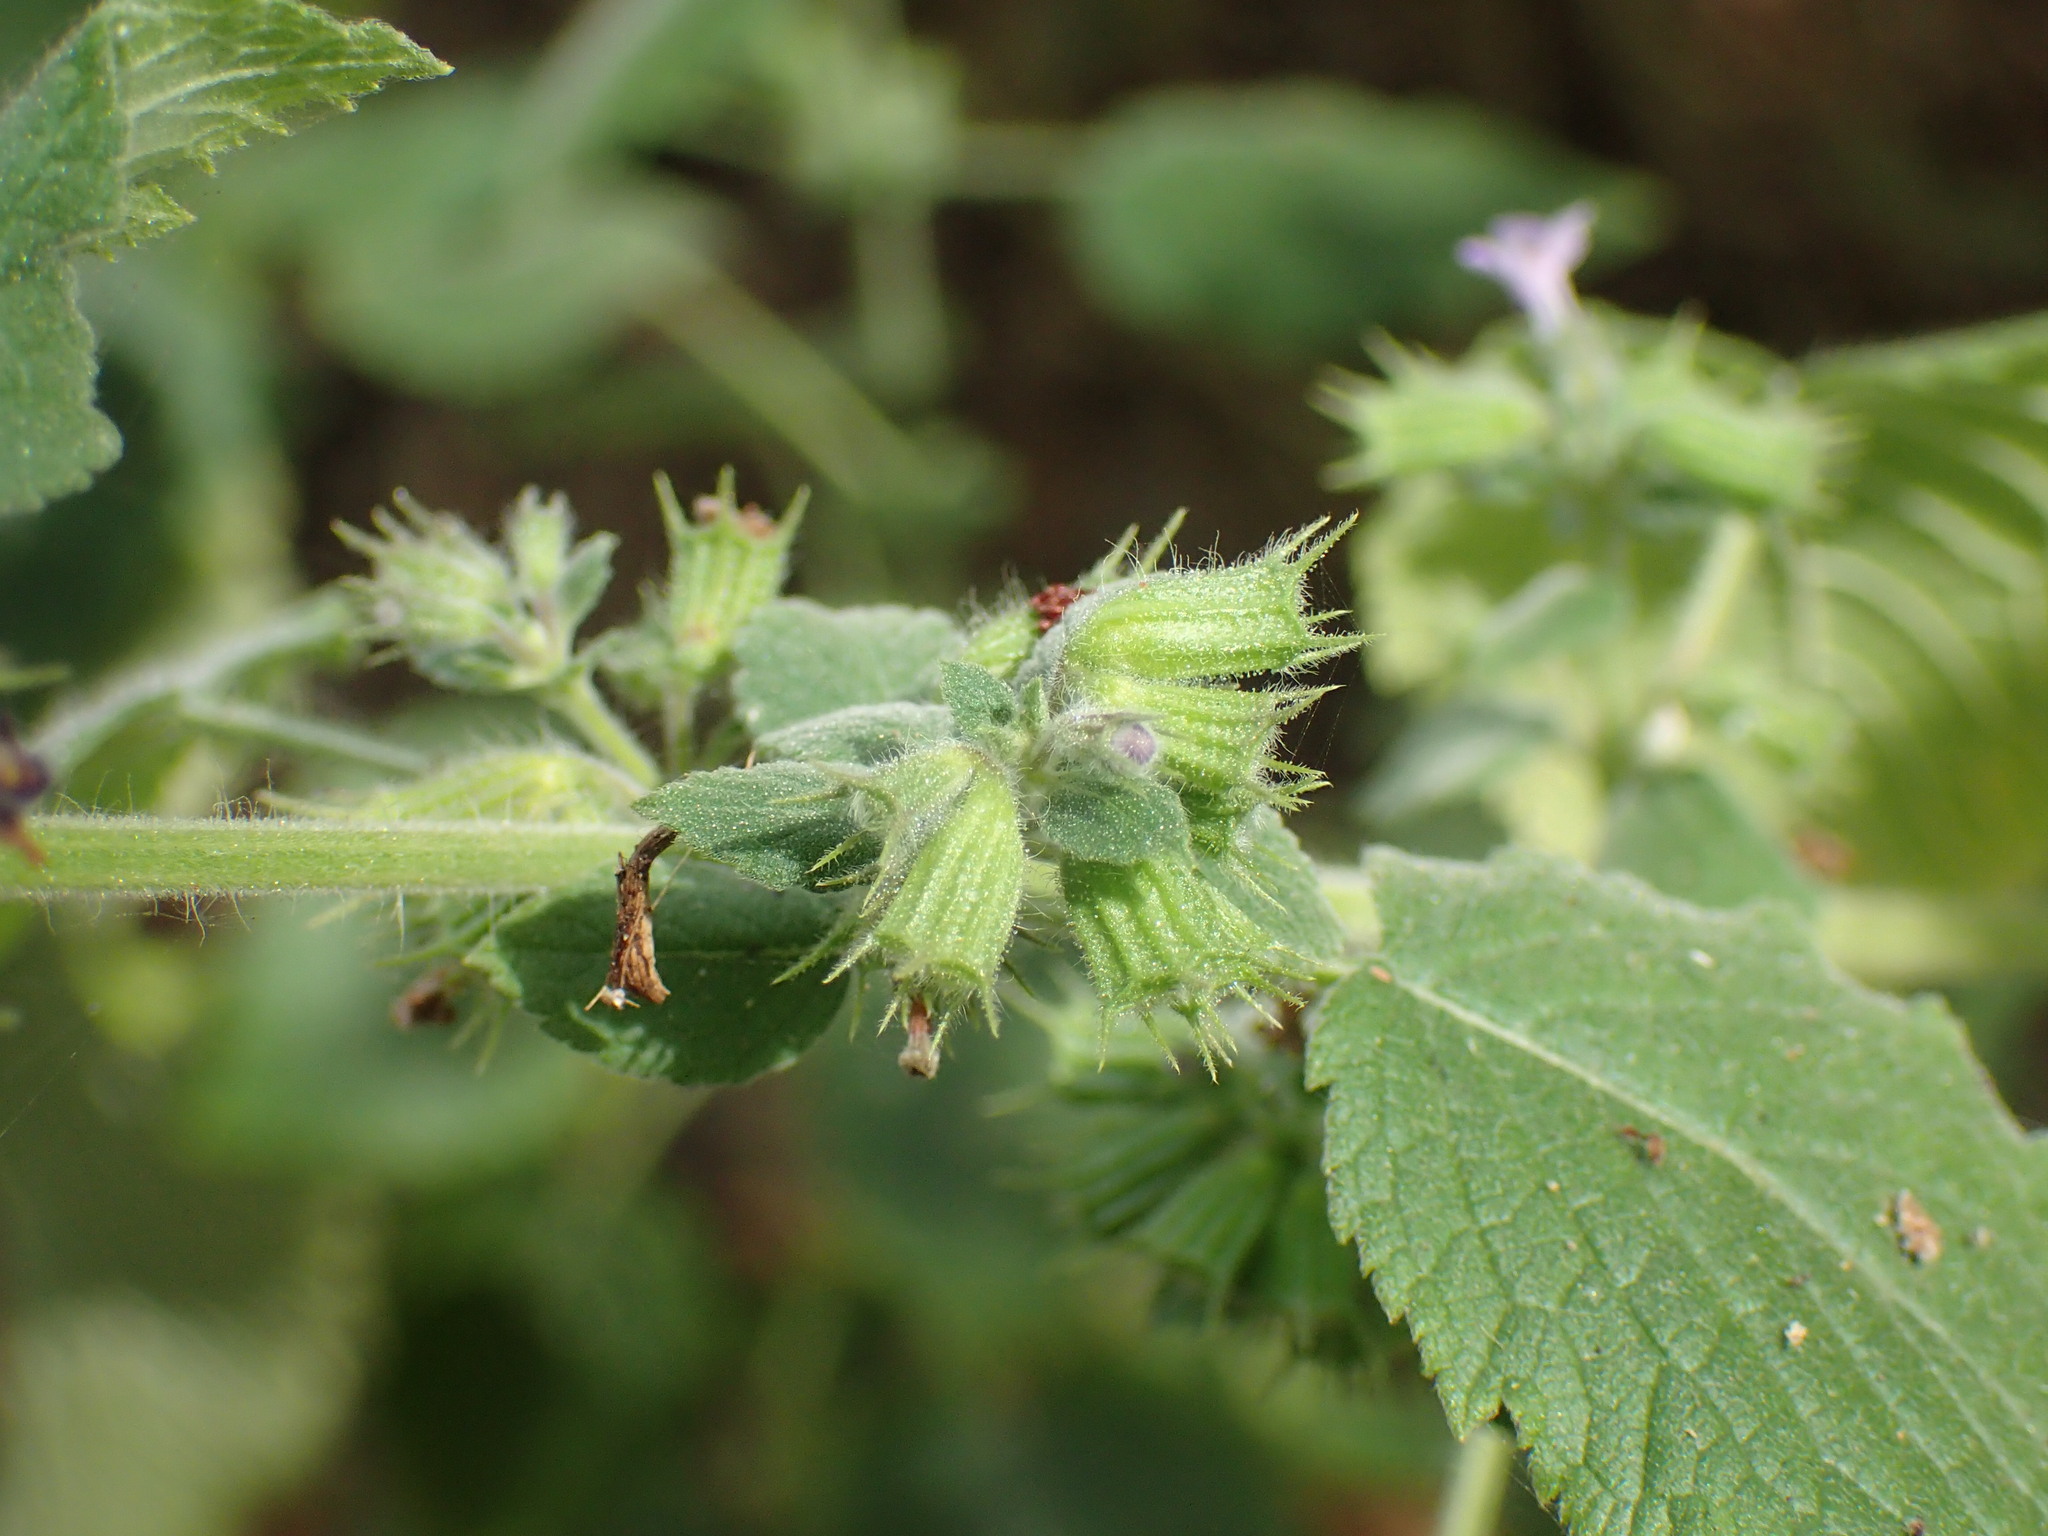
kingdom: Plantae
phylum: Tracheophyta
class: Magnoliopsida
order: Lamiales
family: Lamiaceae
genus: Mesosphaerum
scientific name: Mesosphaerum suaveolens
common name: Pignut
